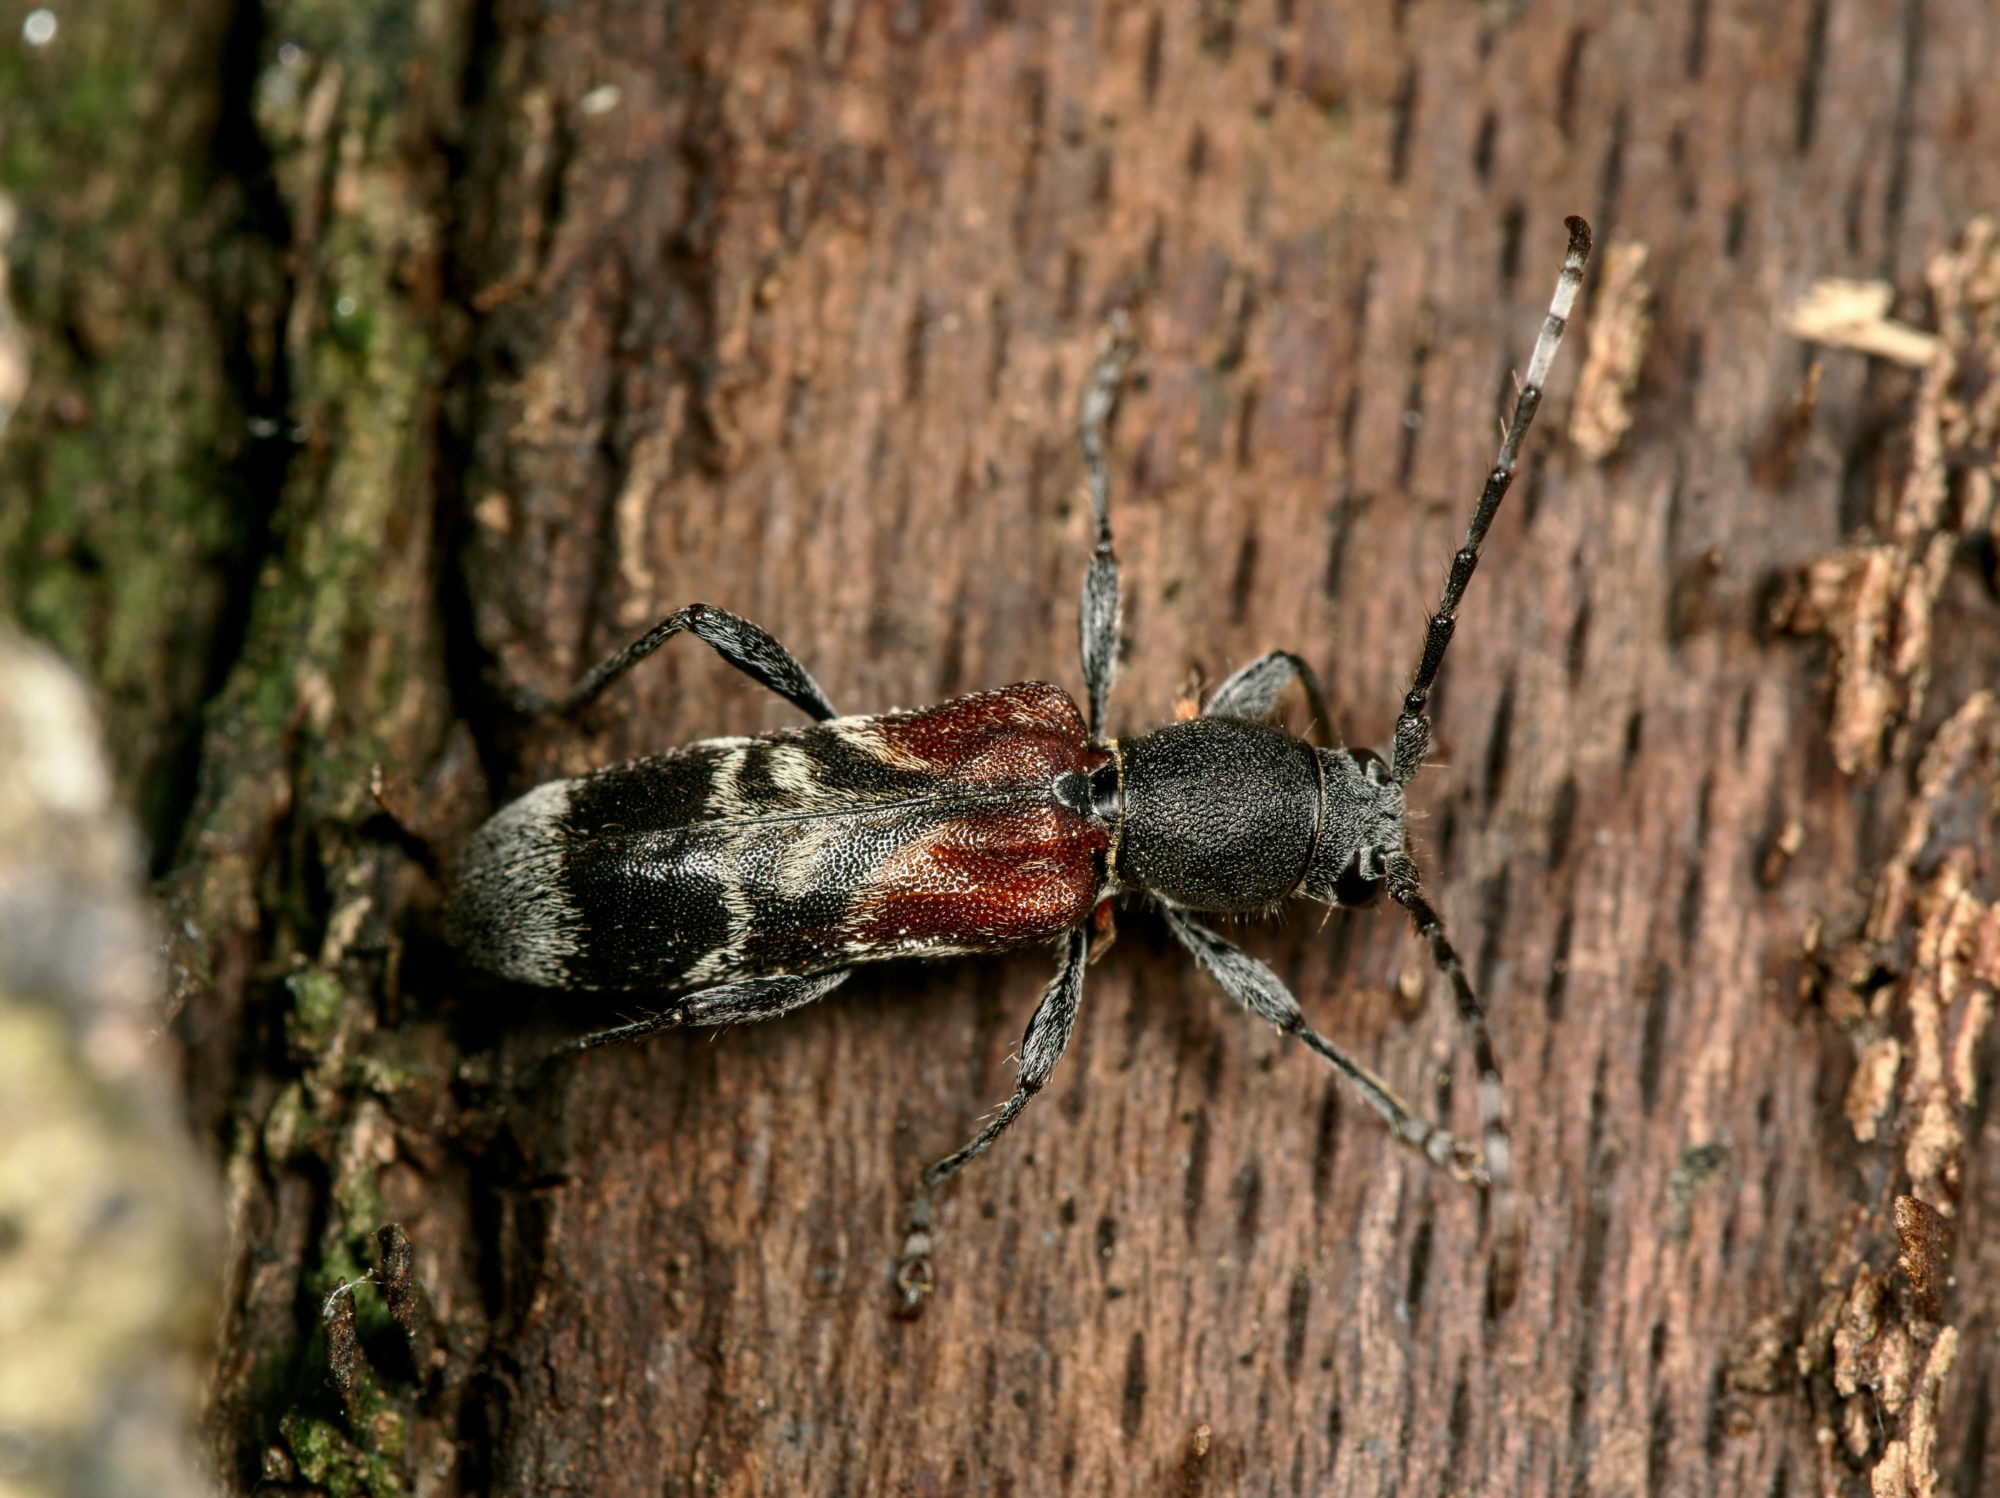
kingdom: Animalia
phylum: Arthropoda
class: Insecta
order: Coleoptera
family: Cerambycidae
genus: Anaglyptus
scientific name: Anaglyptus mysticus
